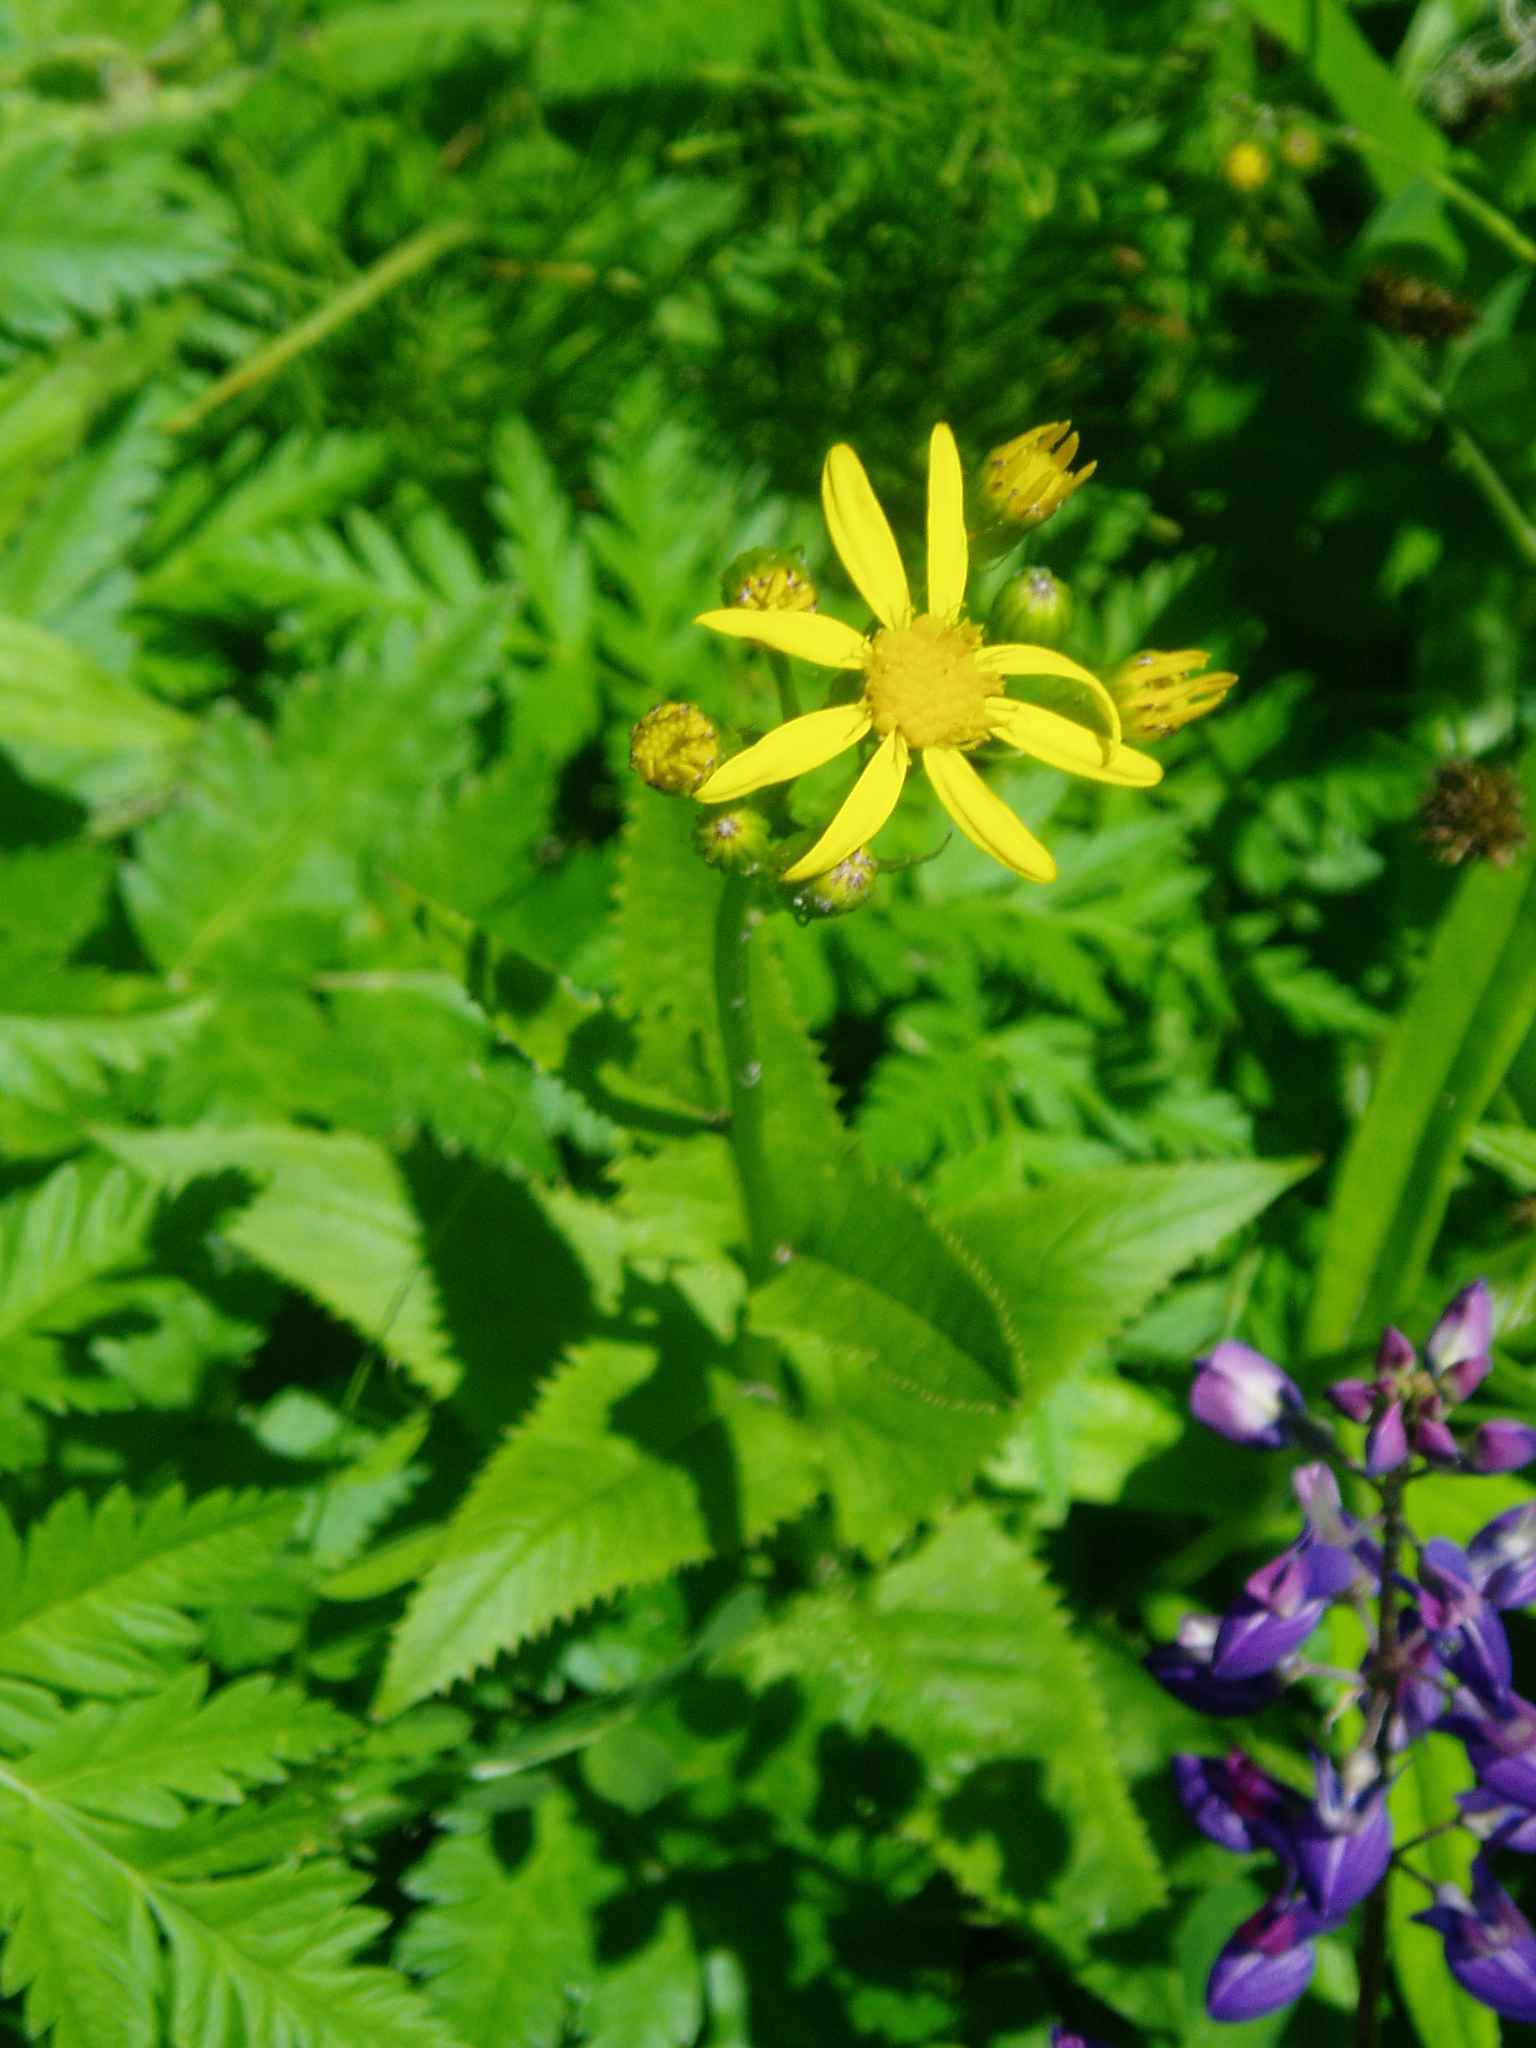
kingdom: Plantae
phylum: Tracheophyta
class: Magnoliopsida
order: Asterales
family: Asteraceae
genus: Senecio
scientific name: Senecio triangularis
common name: Arrowleaf butterweed
